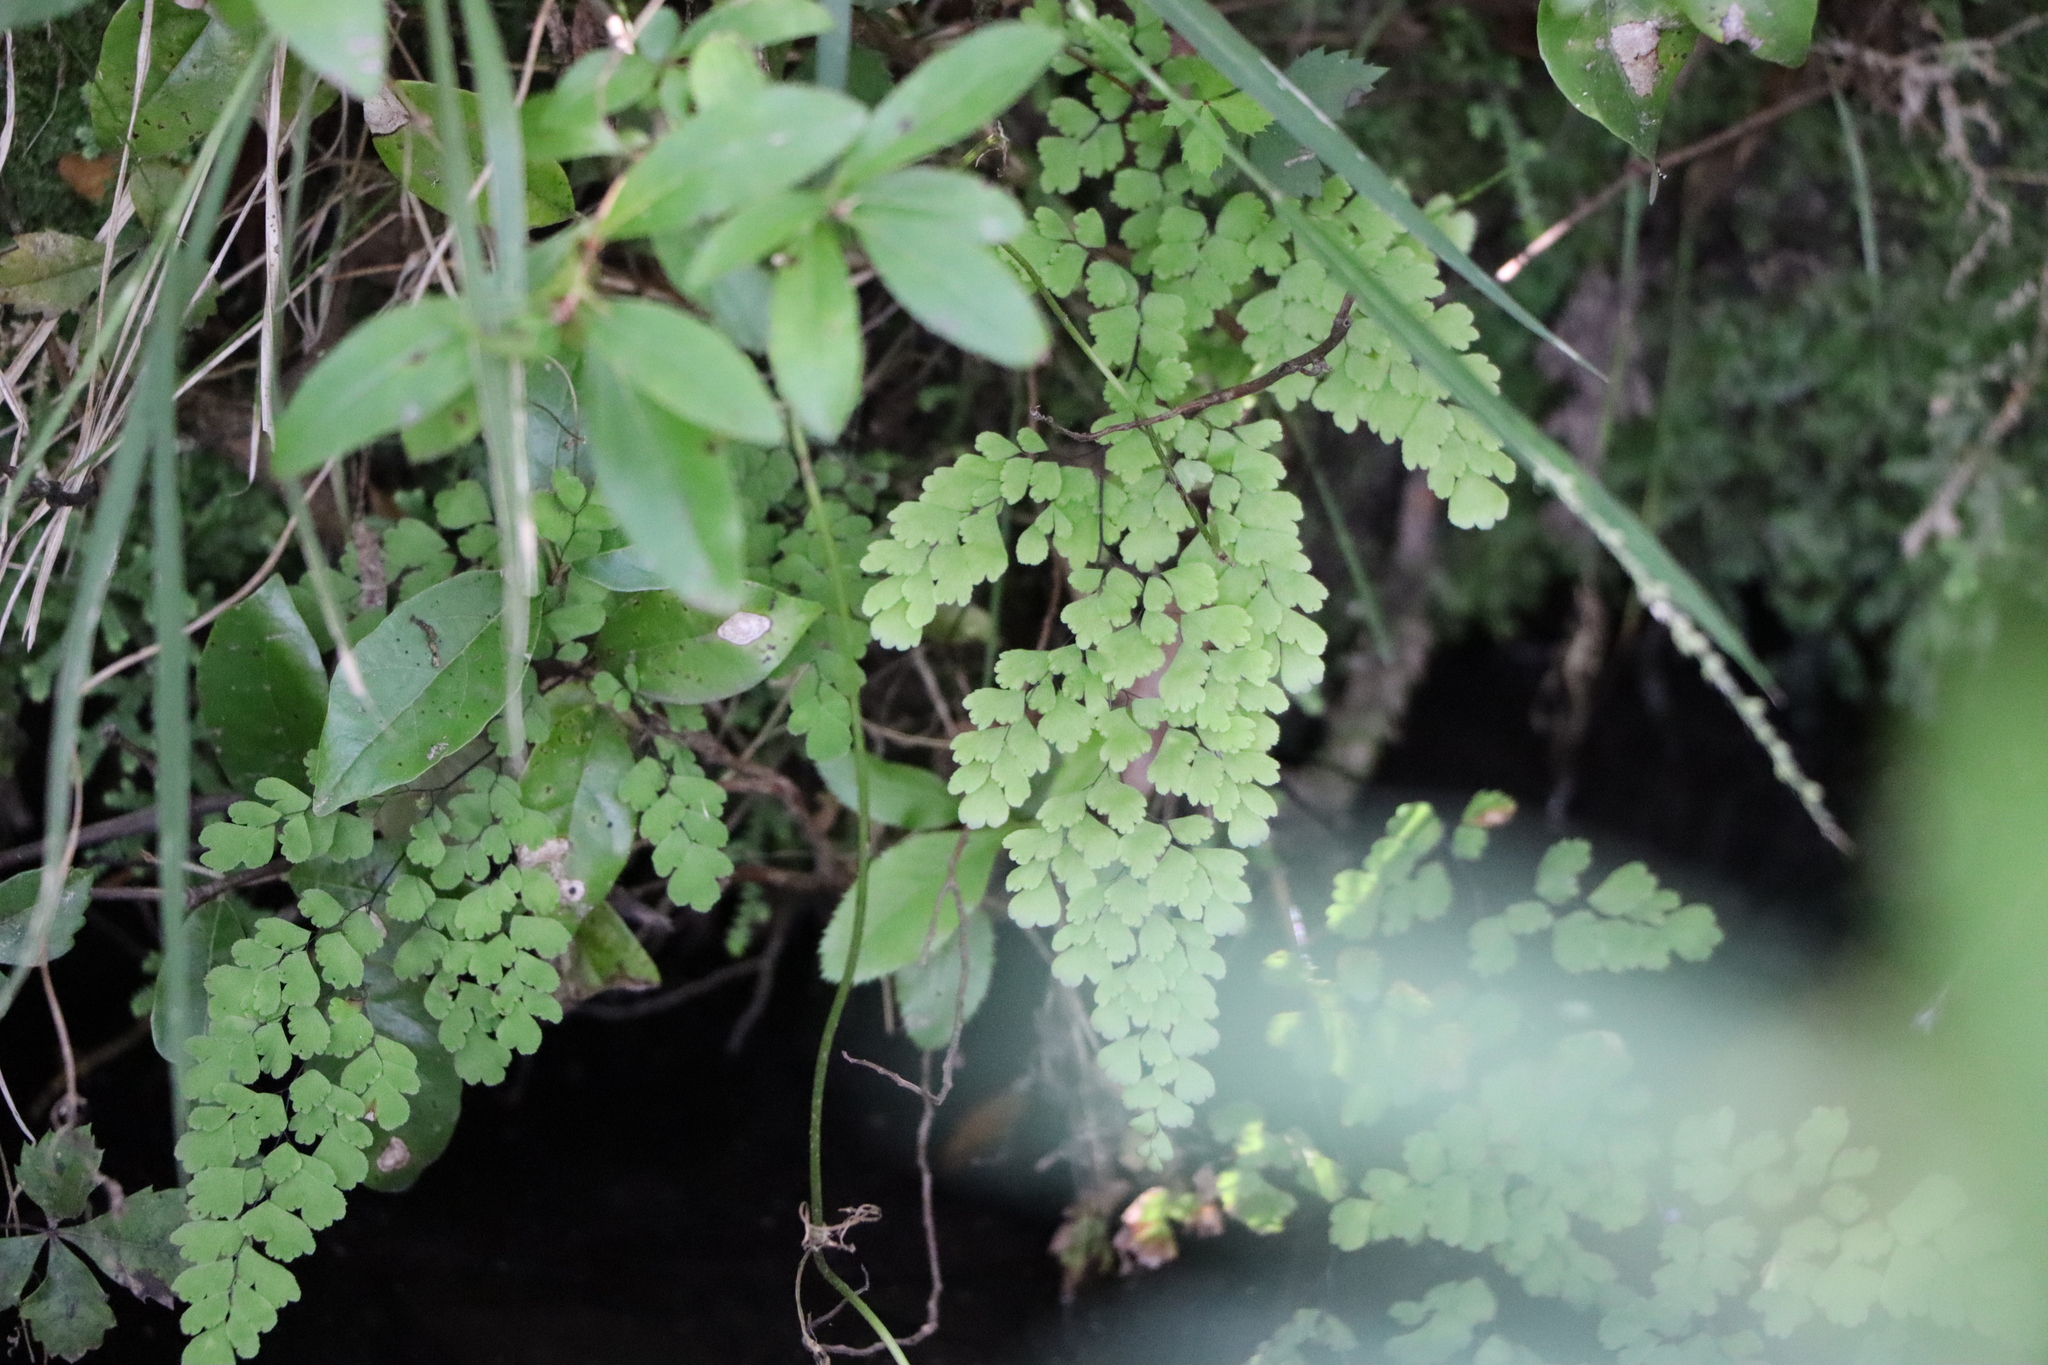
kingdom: Plantae
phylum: Tracheophyta
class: Polypodiopsida
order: Polypodiales
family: Pteridaceae
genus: Adiantum
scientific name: Adiantum raddianum
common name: Delta maidenhair fern
